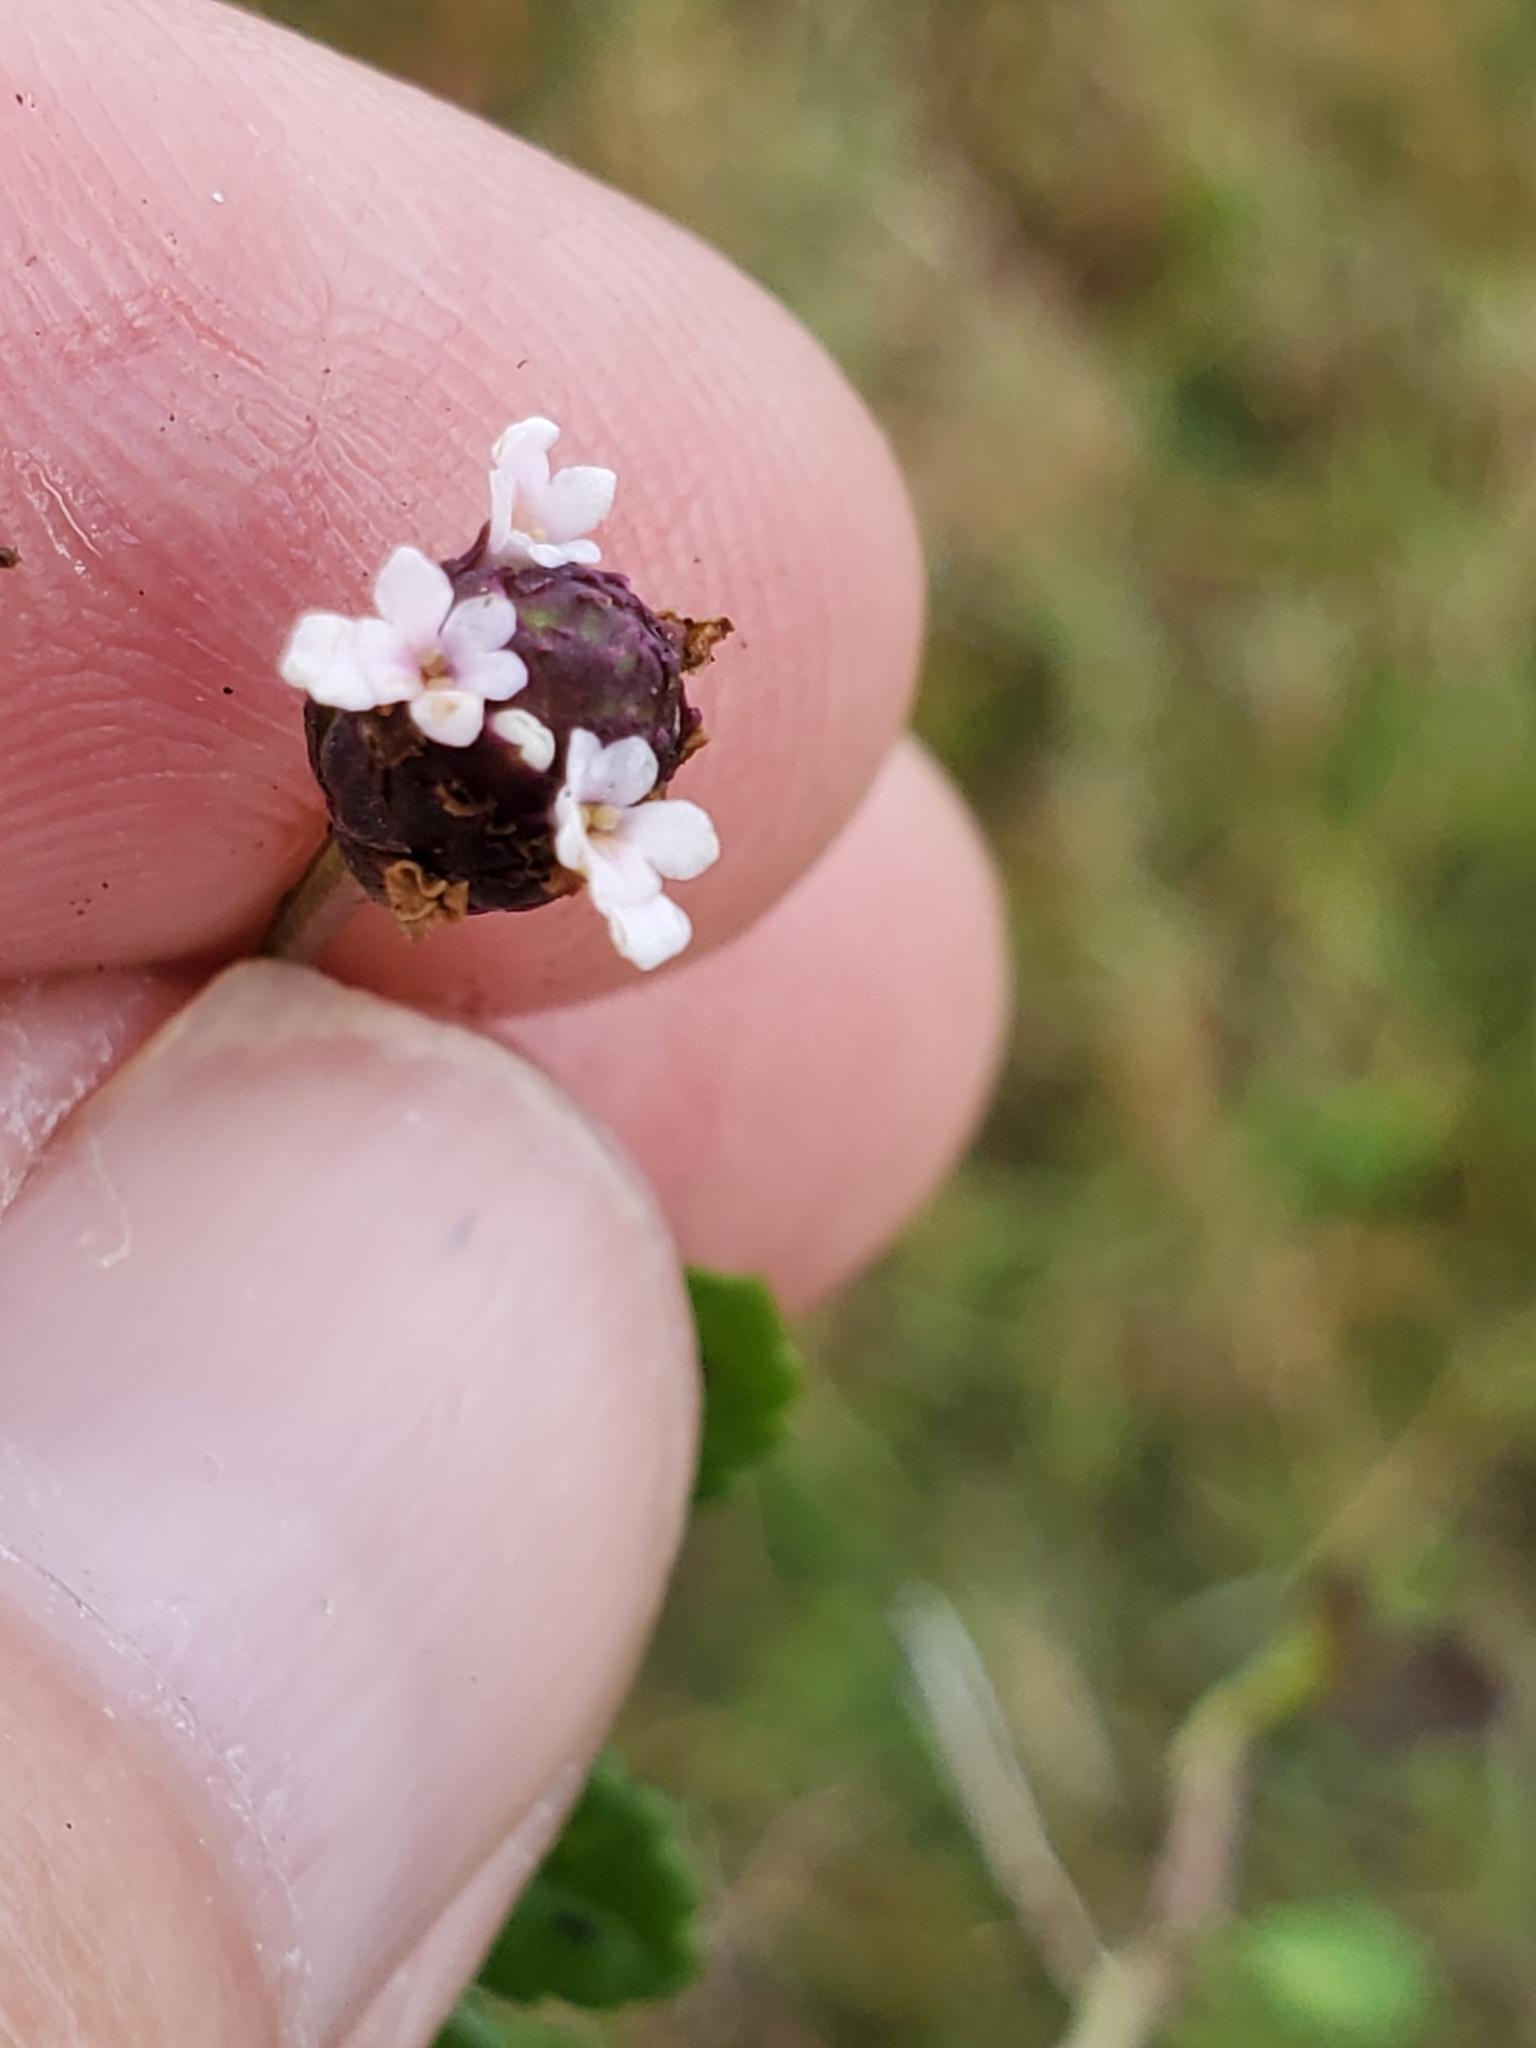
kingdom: Plantae
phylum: Tracheophyta
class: Magnoliopsida
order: Lamiales
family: Verbenaceae
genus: Phyla
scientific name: Phyla nodiflora
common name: Frogfruit
